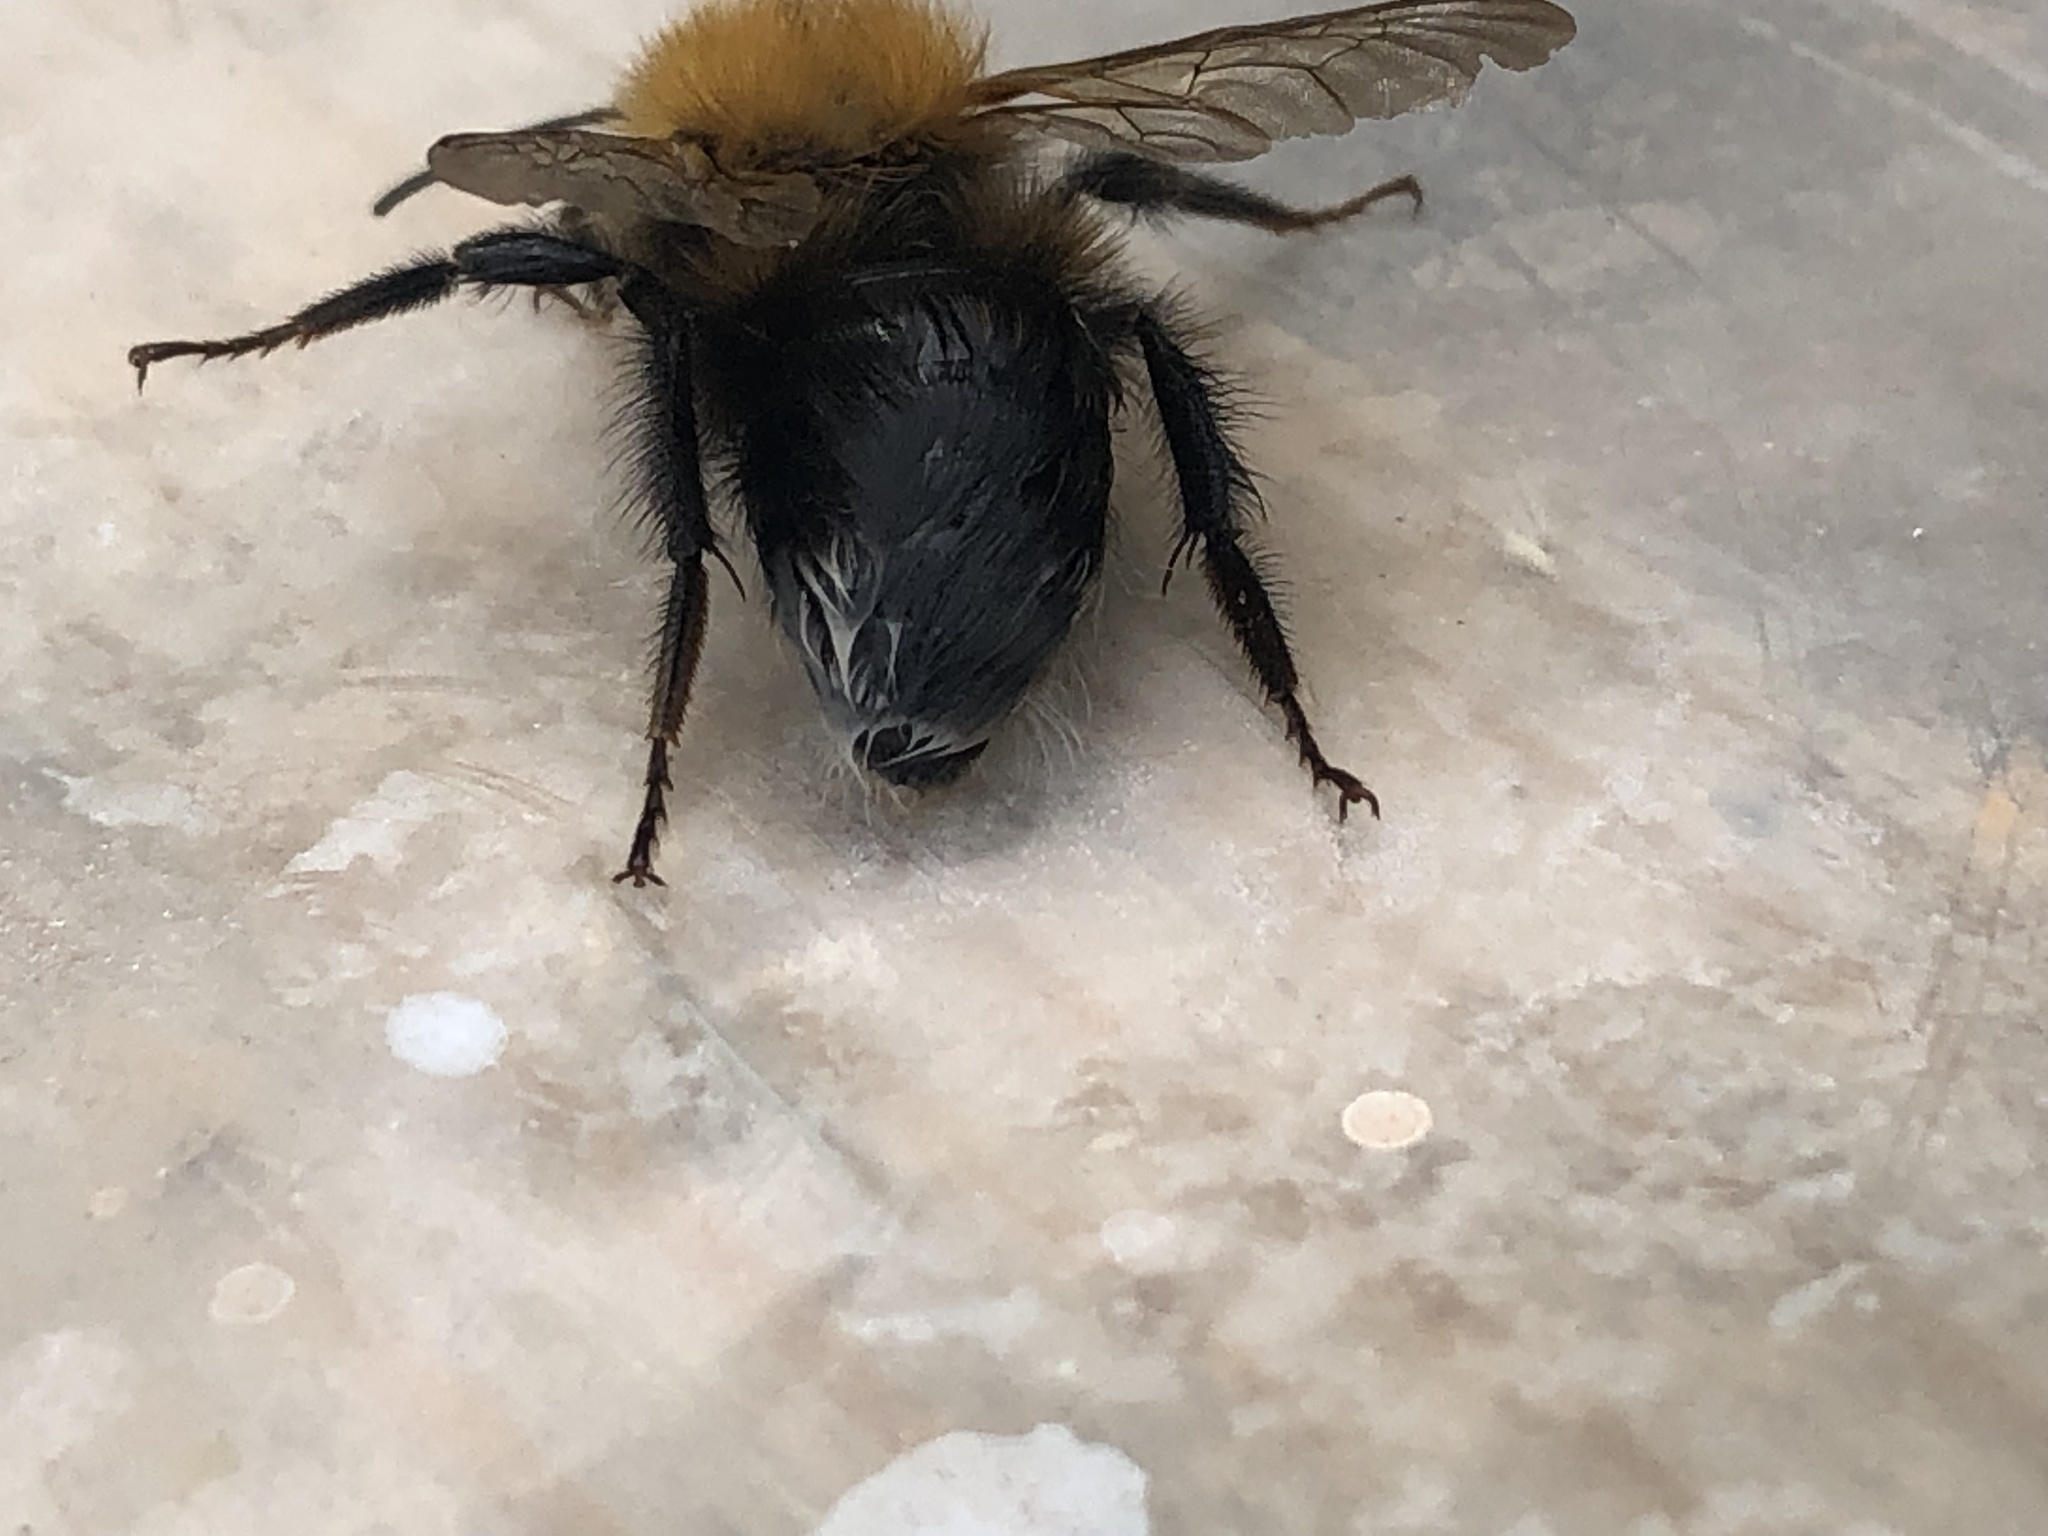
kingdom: Animalia
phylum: Arthropoda
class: Insecta
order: Hymenoptera
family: Apidae
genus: Bombus
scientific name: Bombus hypnorum
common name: New garden bumblebee
